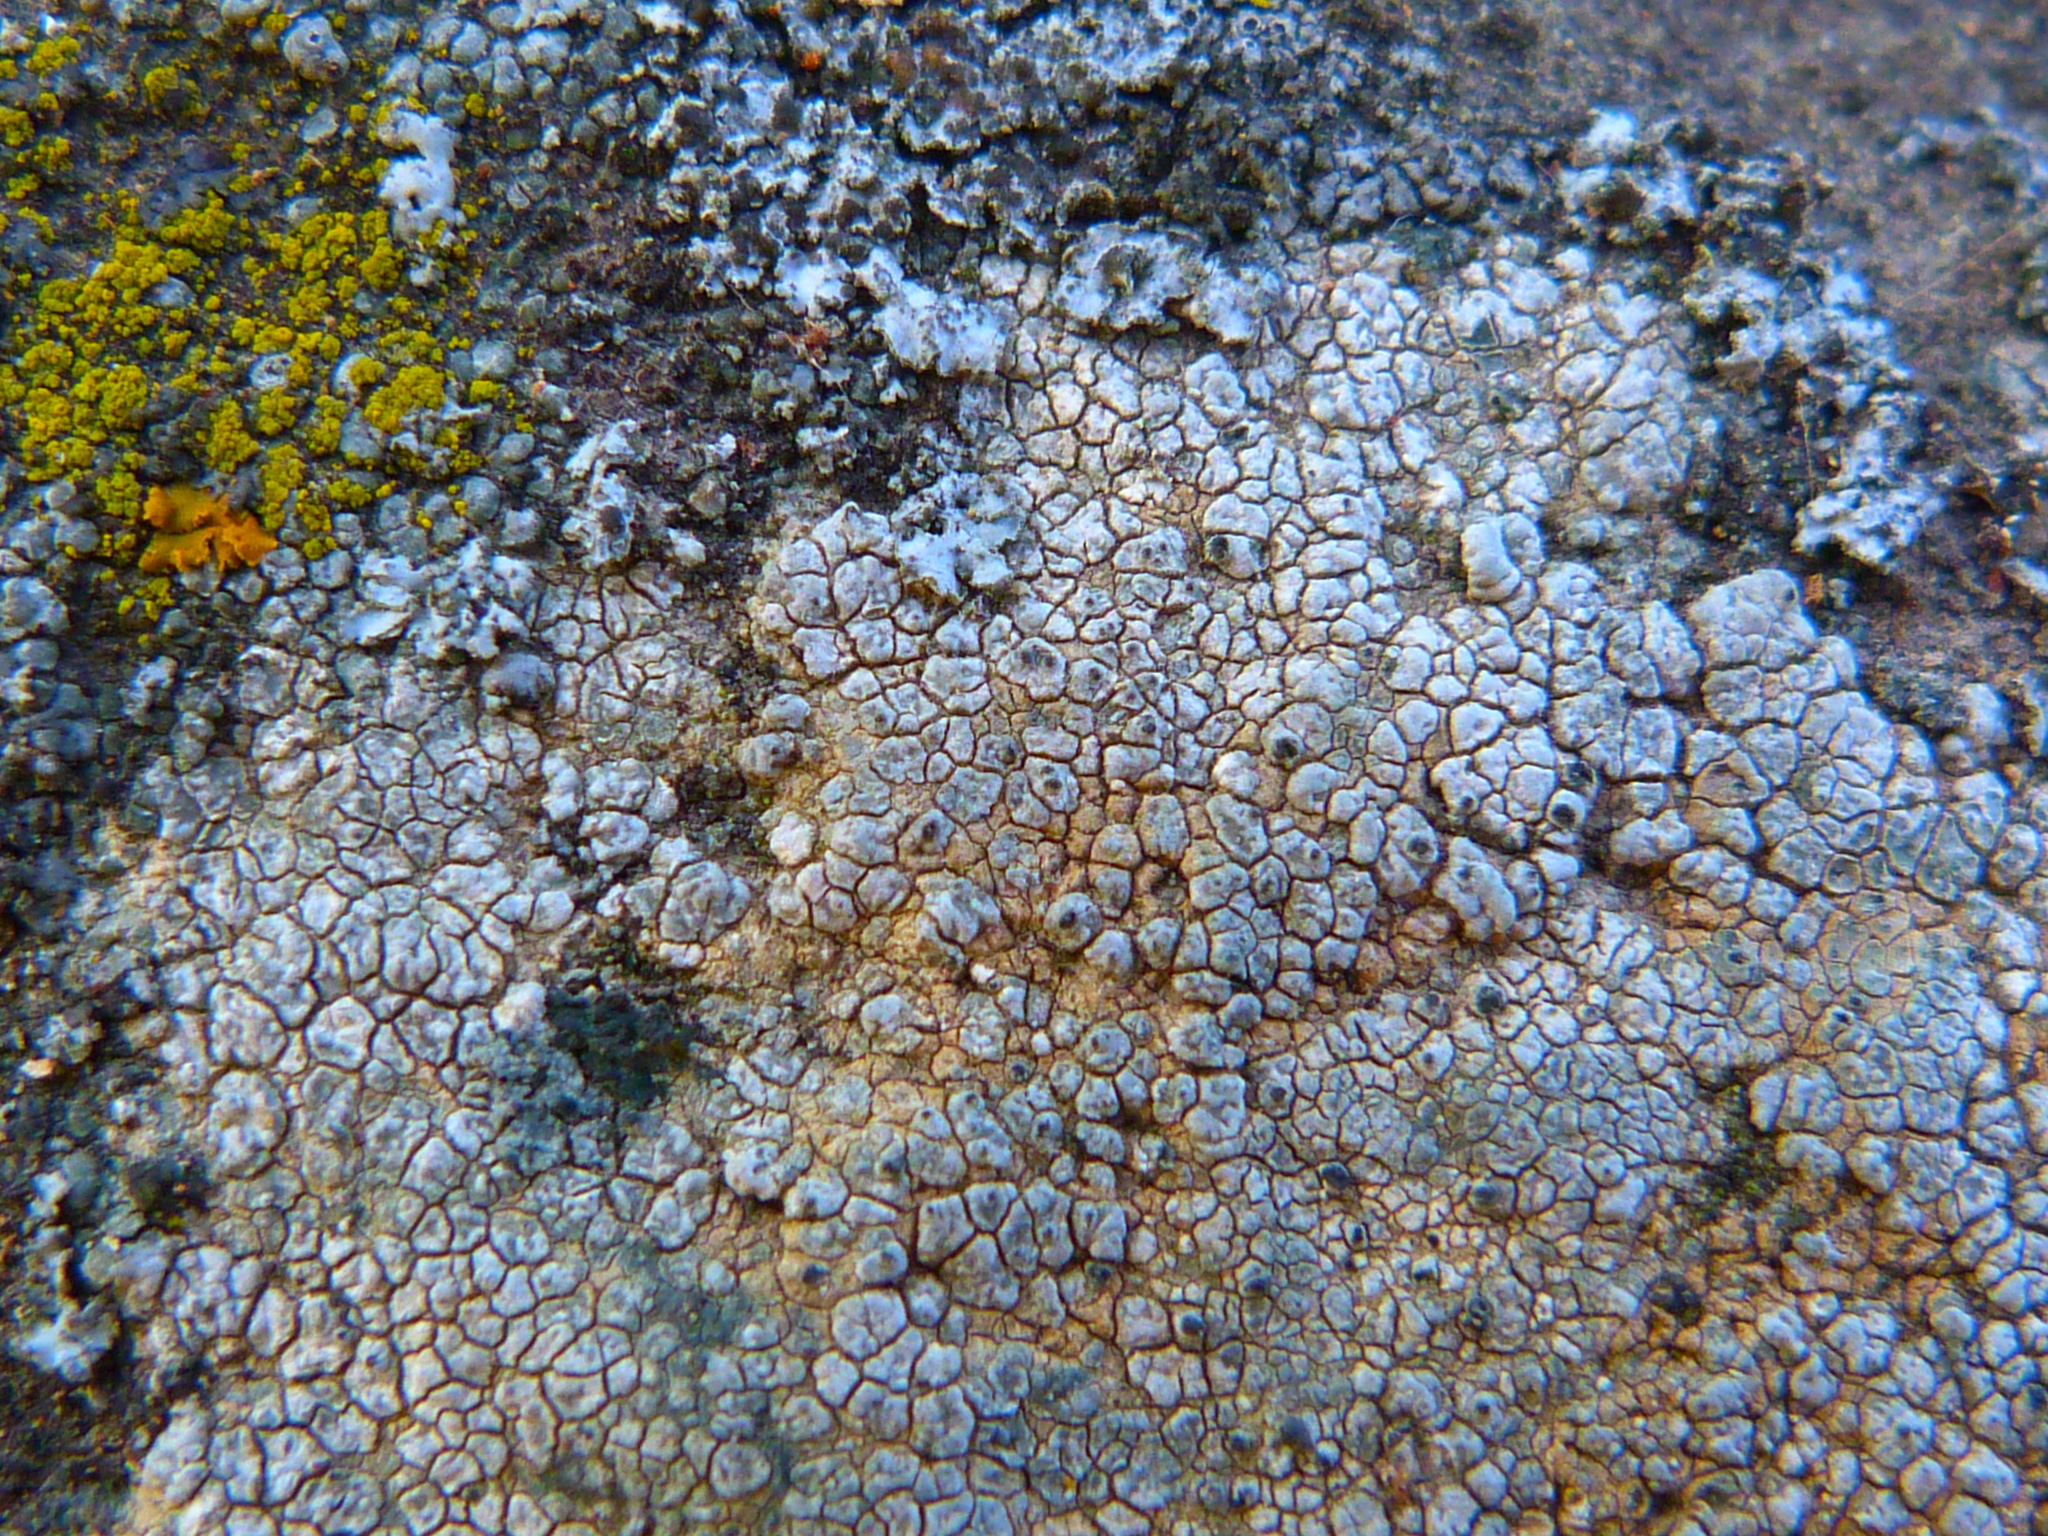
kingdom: Fungi
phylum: Ascomycota
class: Lecanoromycetes
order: Acarosporales
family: Acarosporaceae
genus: Acarospora
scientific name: Acarospora strigata
